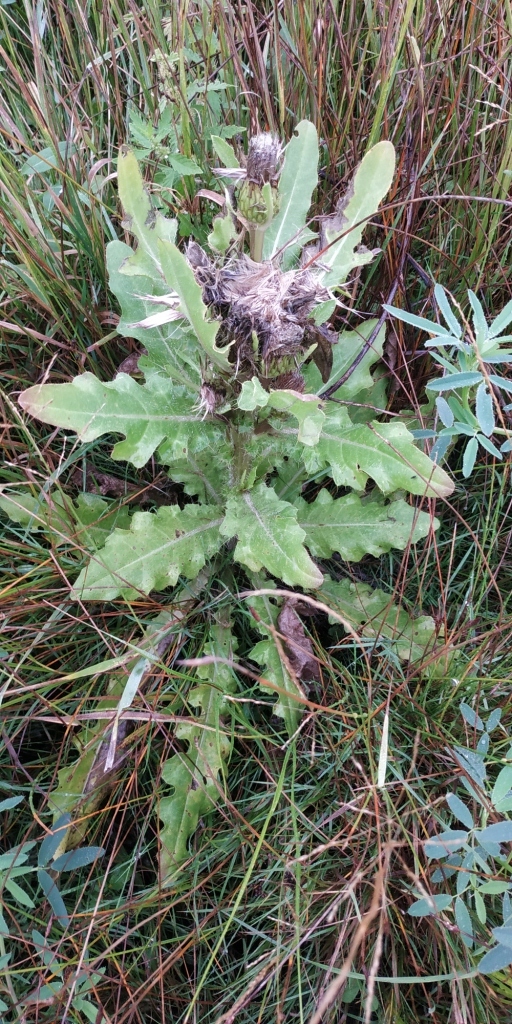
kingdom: Plantae
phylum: Tracheophyta
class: Magnoliopsida
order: Asterales
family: Asteraceae
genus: Cirsium
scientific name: Cirsium esculentum
